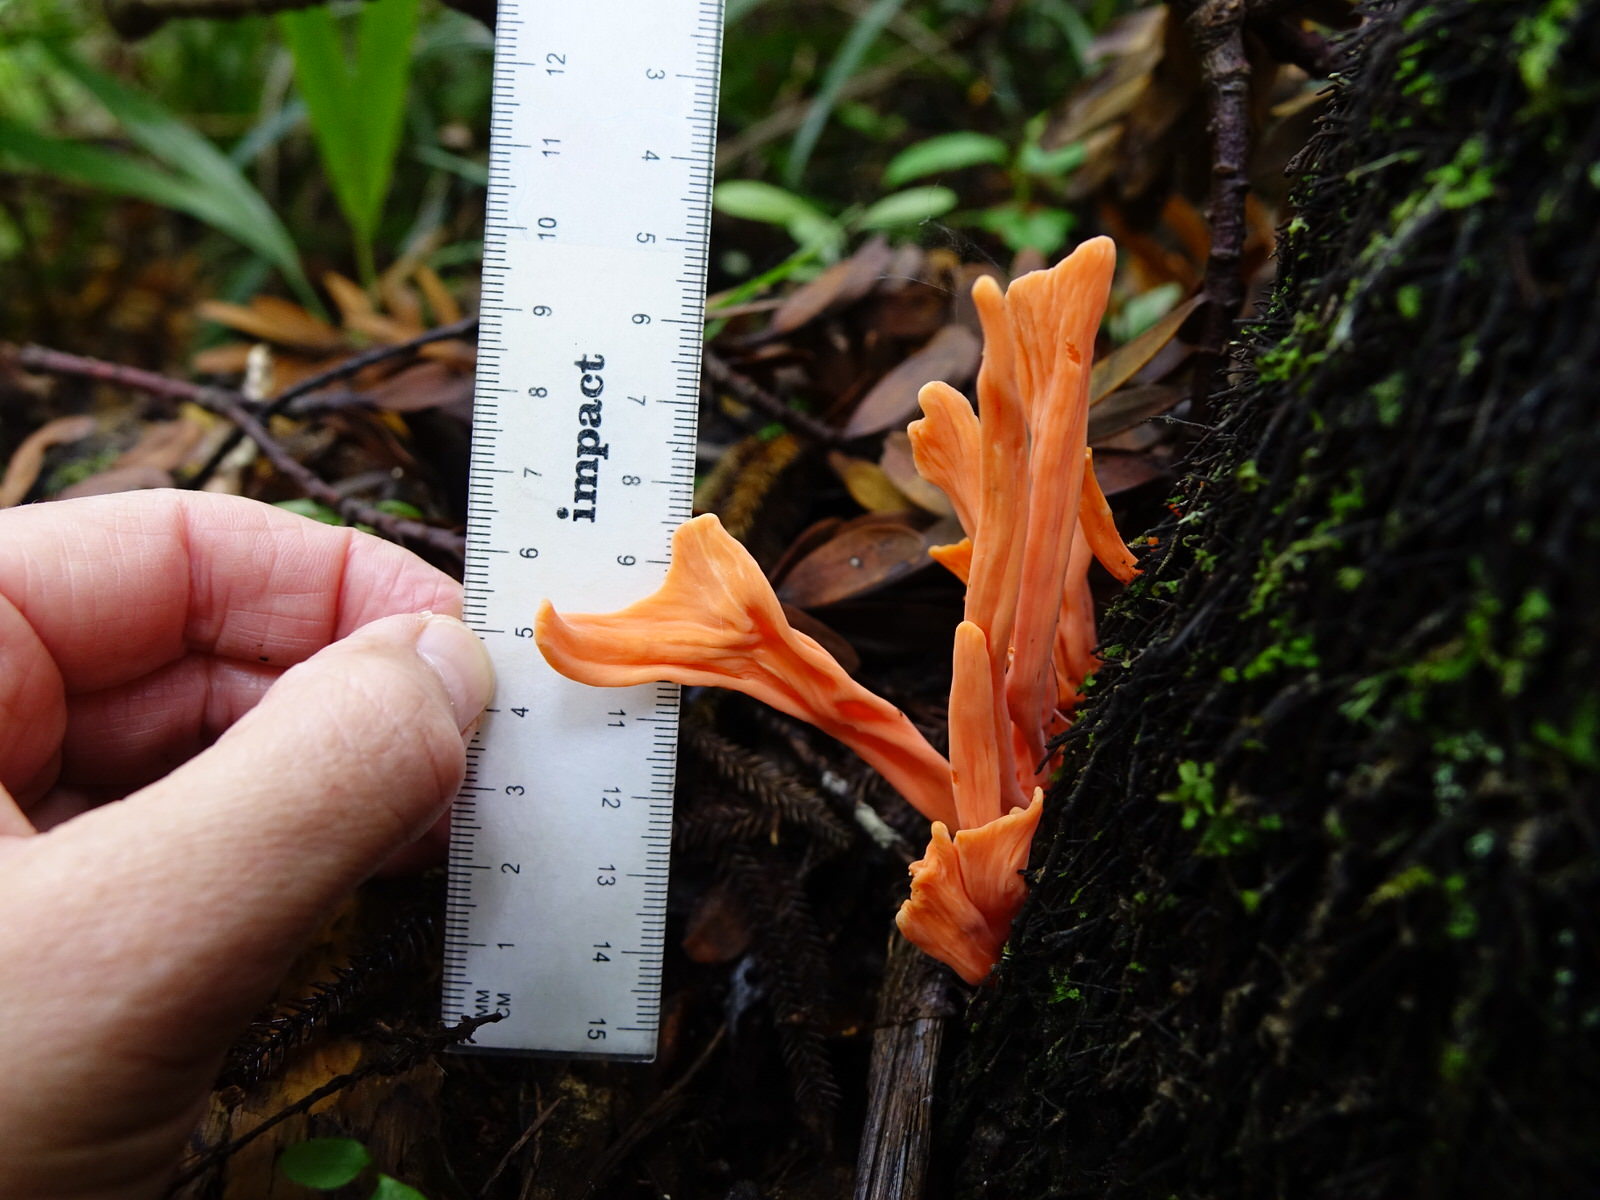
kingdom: Fungi
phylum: Basidiomycota
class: Agaricomycetes
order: Agaricales
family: Clavariaceae
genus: Clavulinopsis
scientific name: Clavulinopsis sulcata
